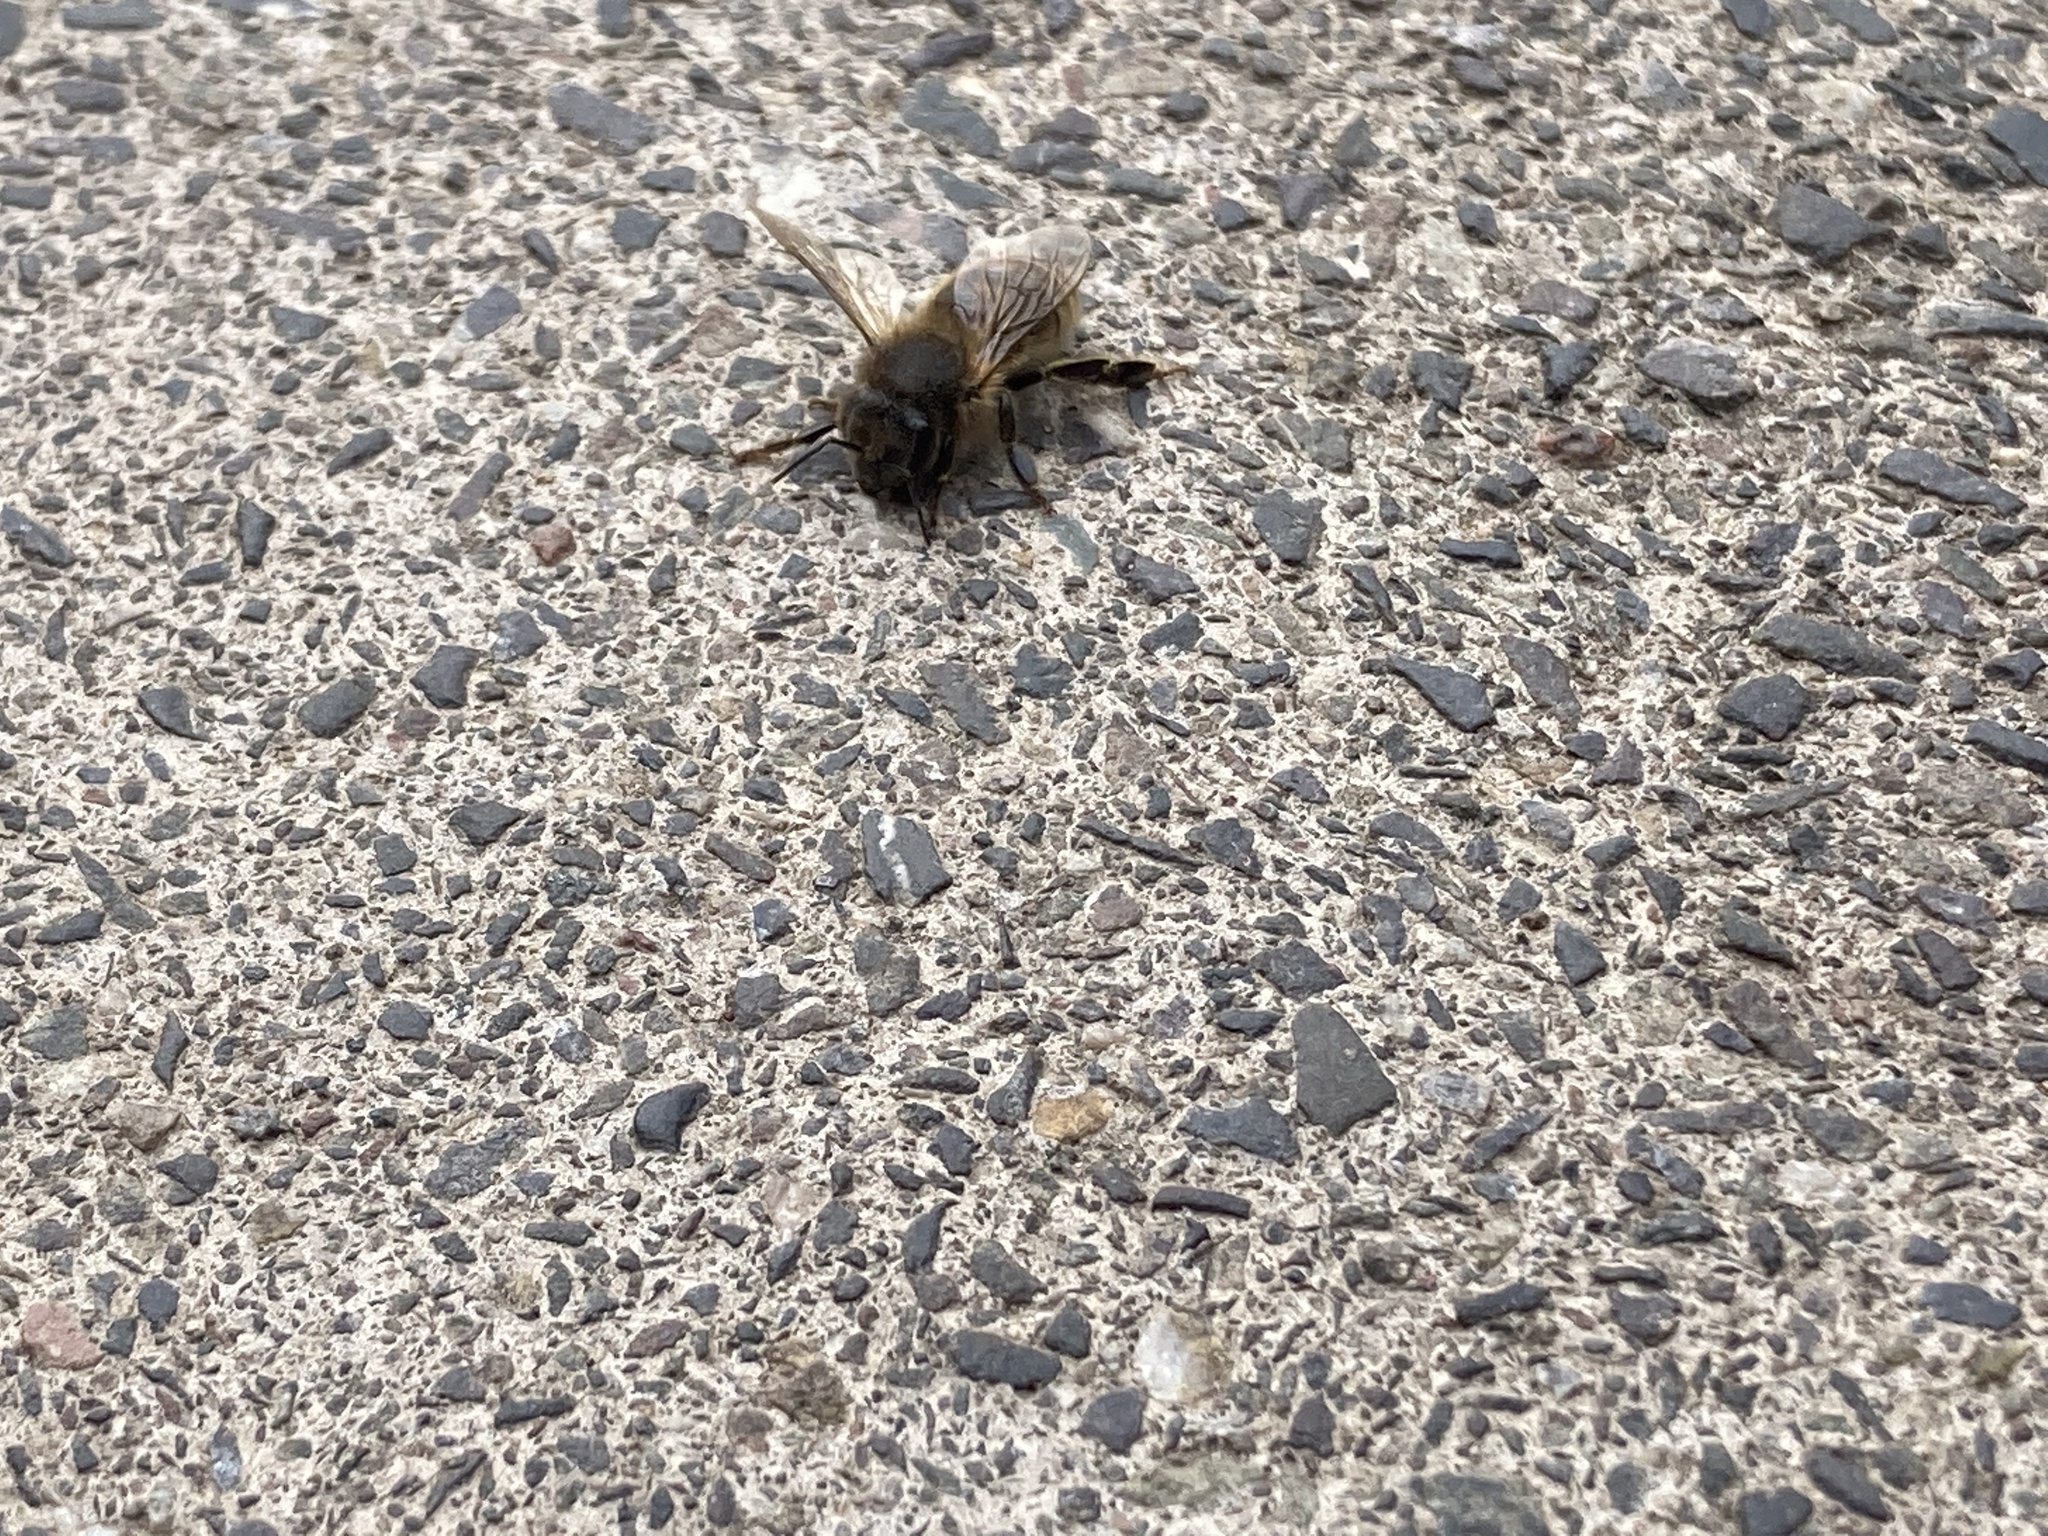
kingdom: Animalia
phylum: Arthropoda
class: Insecta
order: Hymenoptera
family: Apidae
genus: Apis
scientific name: Apis mellifera
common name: Honey bee
